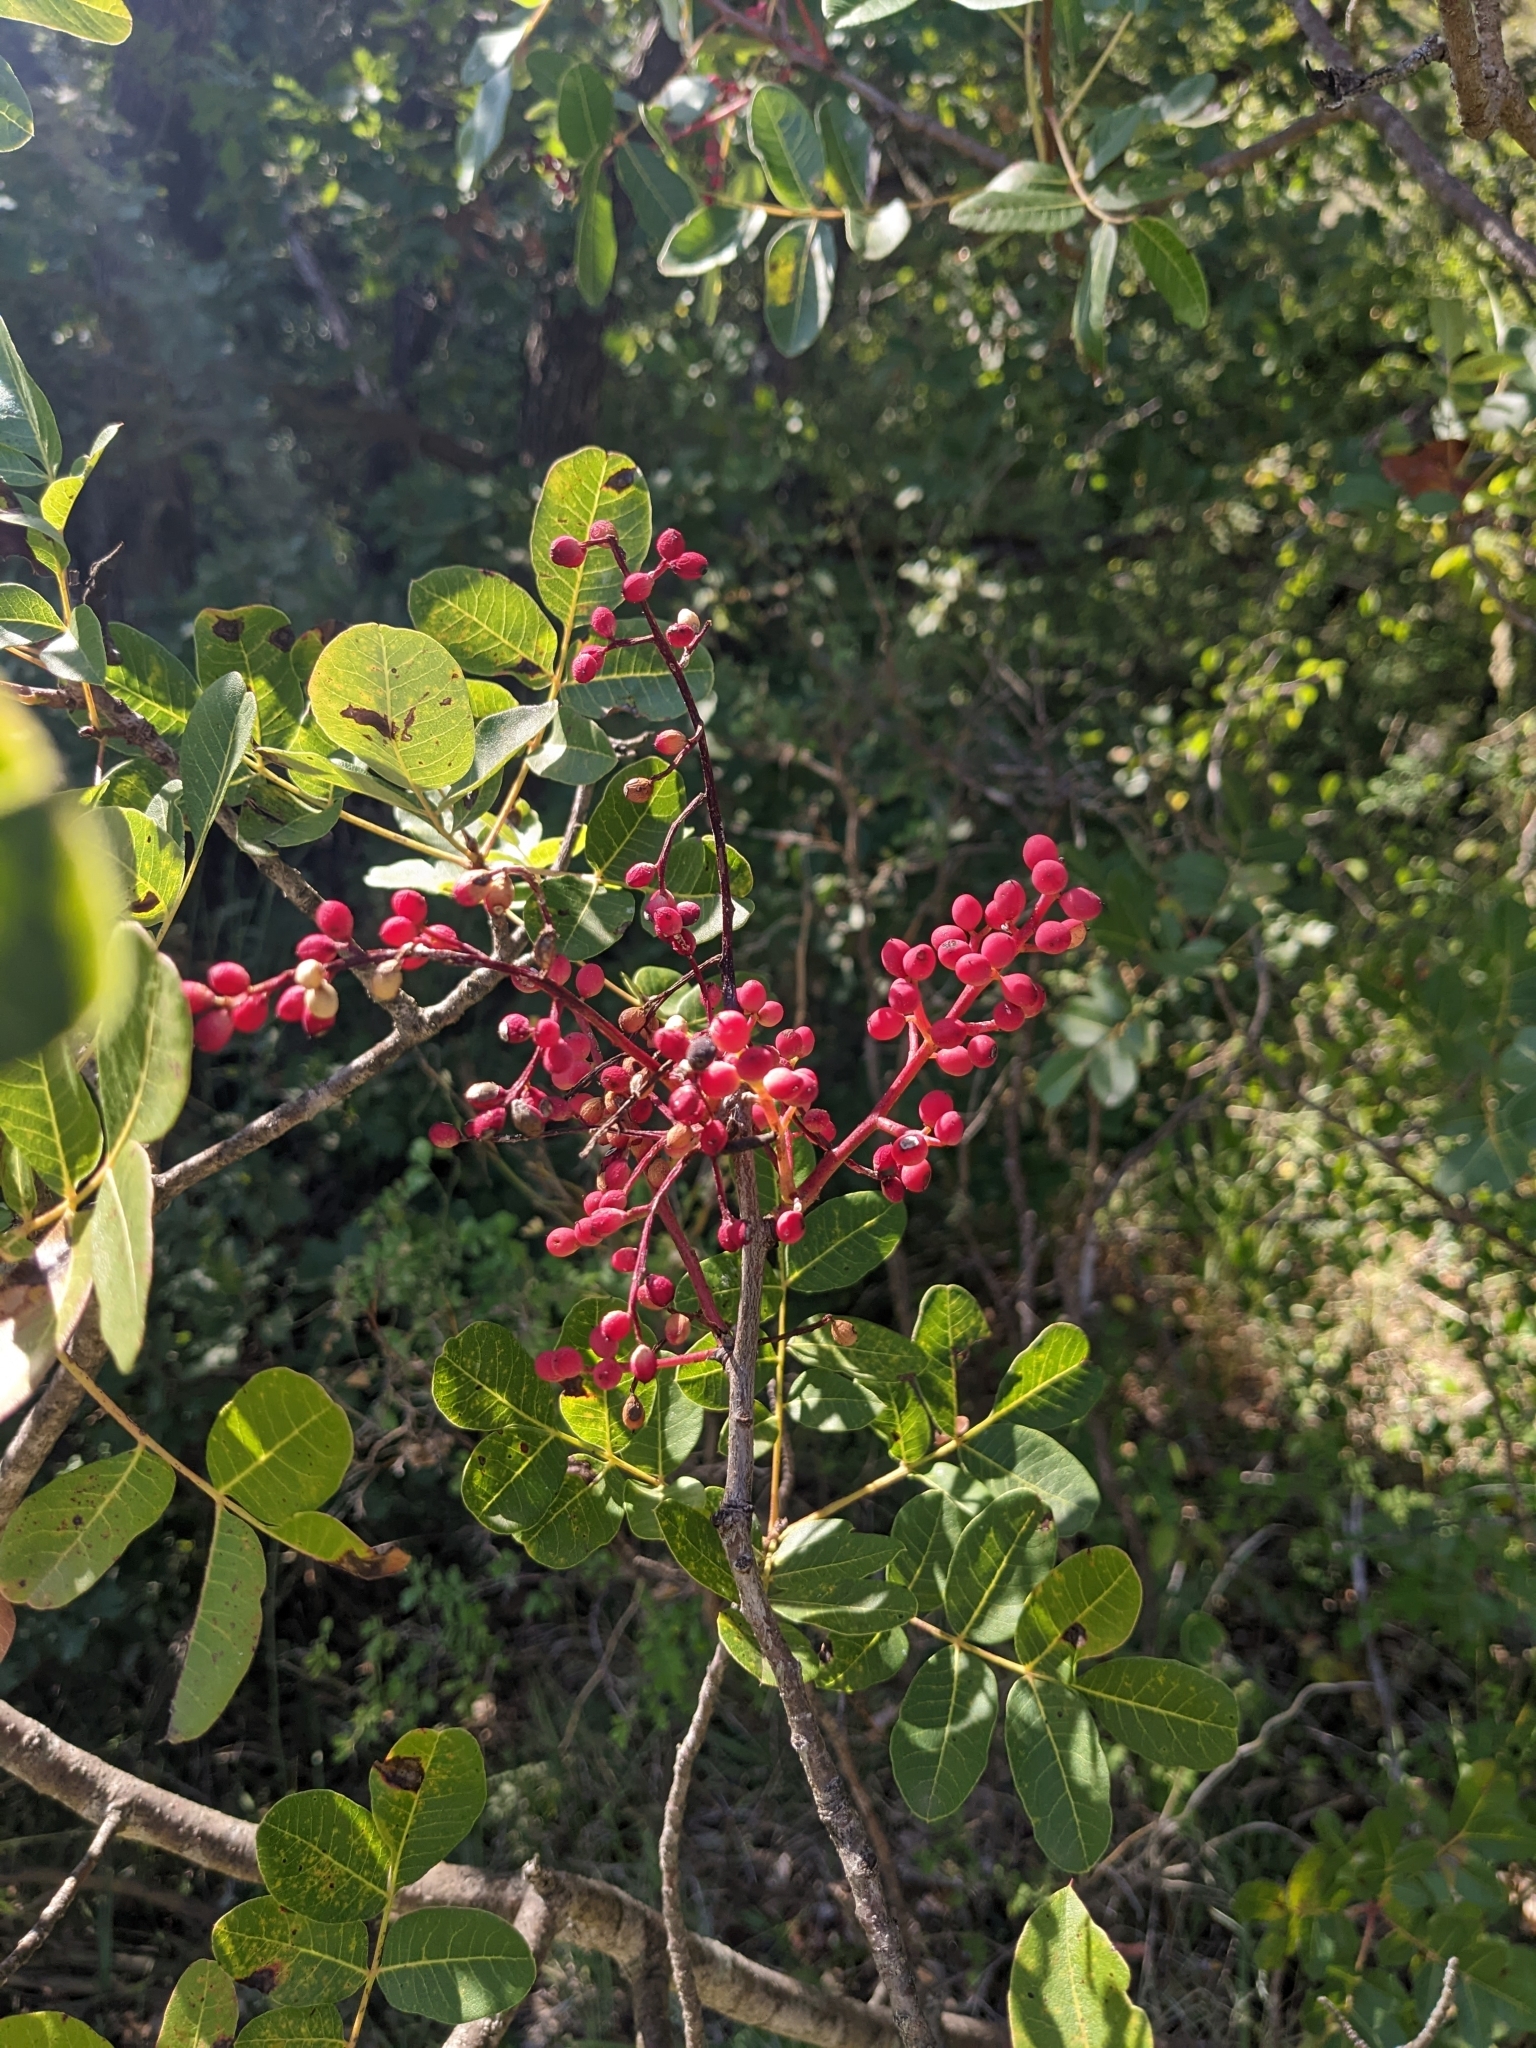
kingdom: Plantae
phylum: Tracheophyta
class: Magnoliopsida
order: Sapindales
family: Anacardiaceae
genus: Pistacia
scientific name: Pistacia terebinthus
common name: Terebinth
